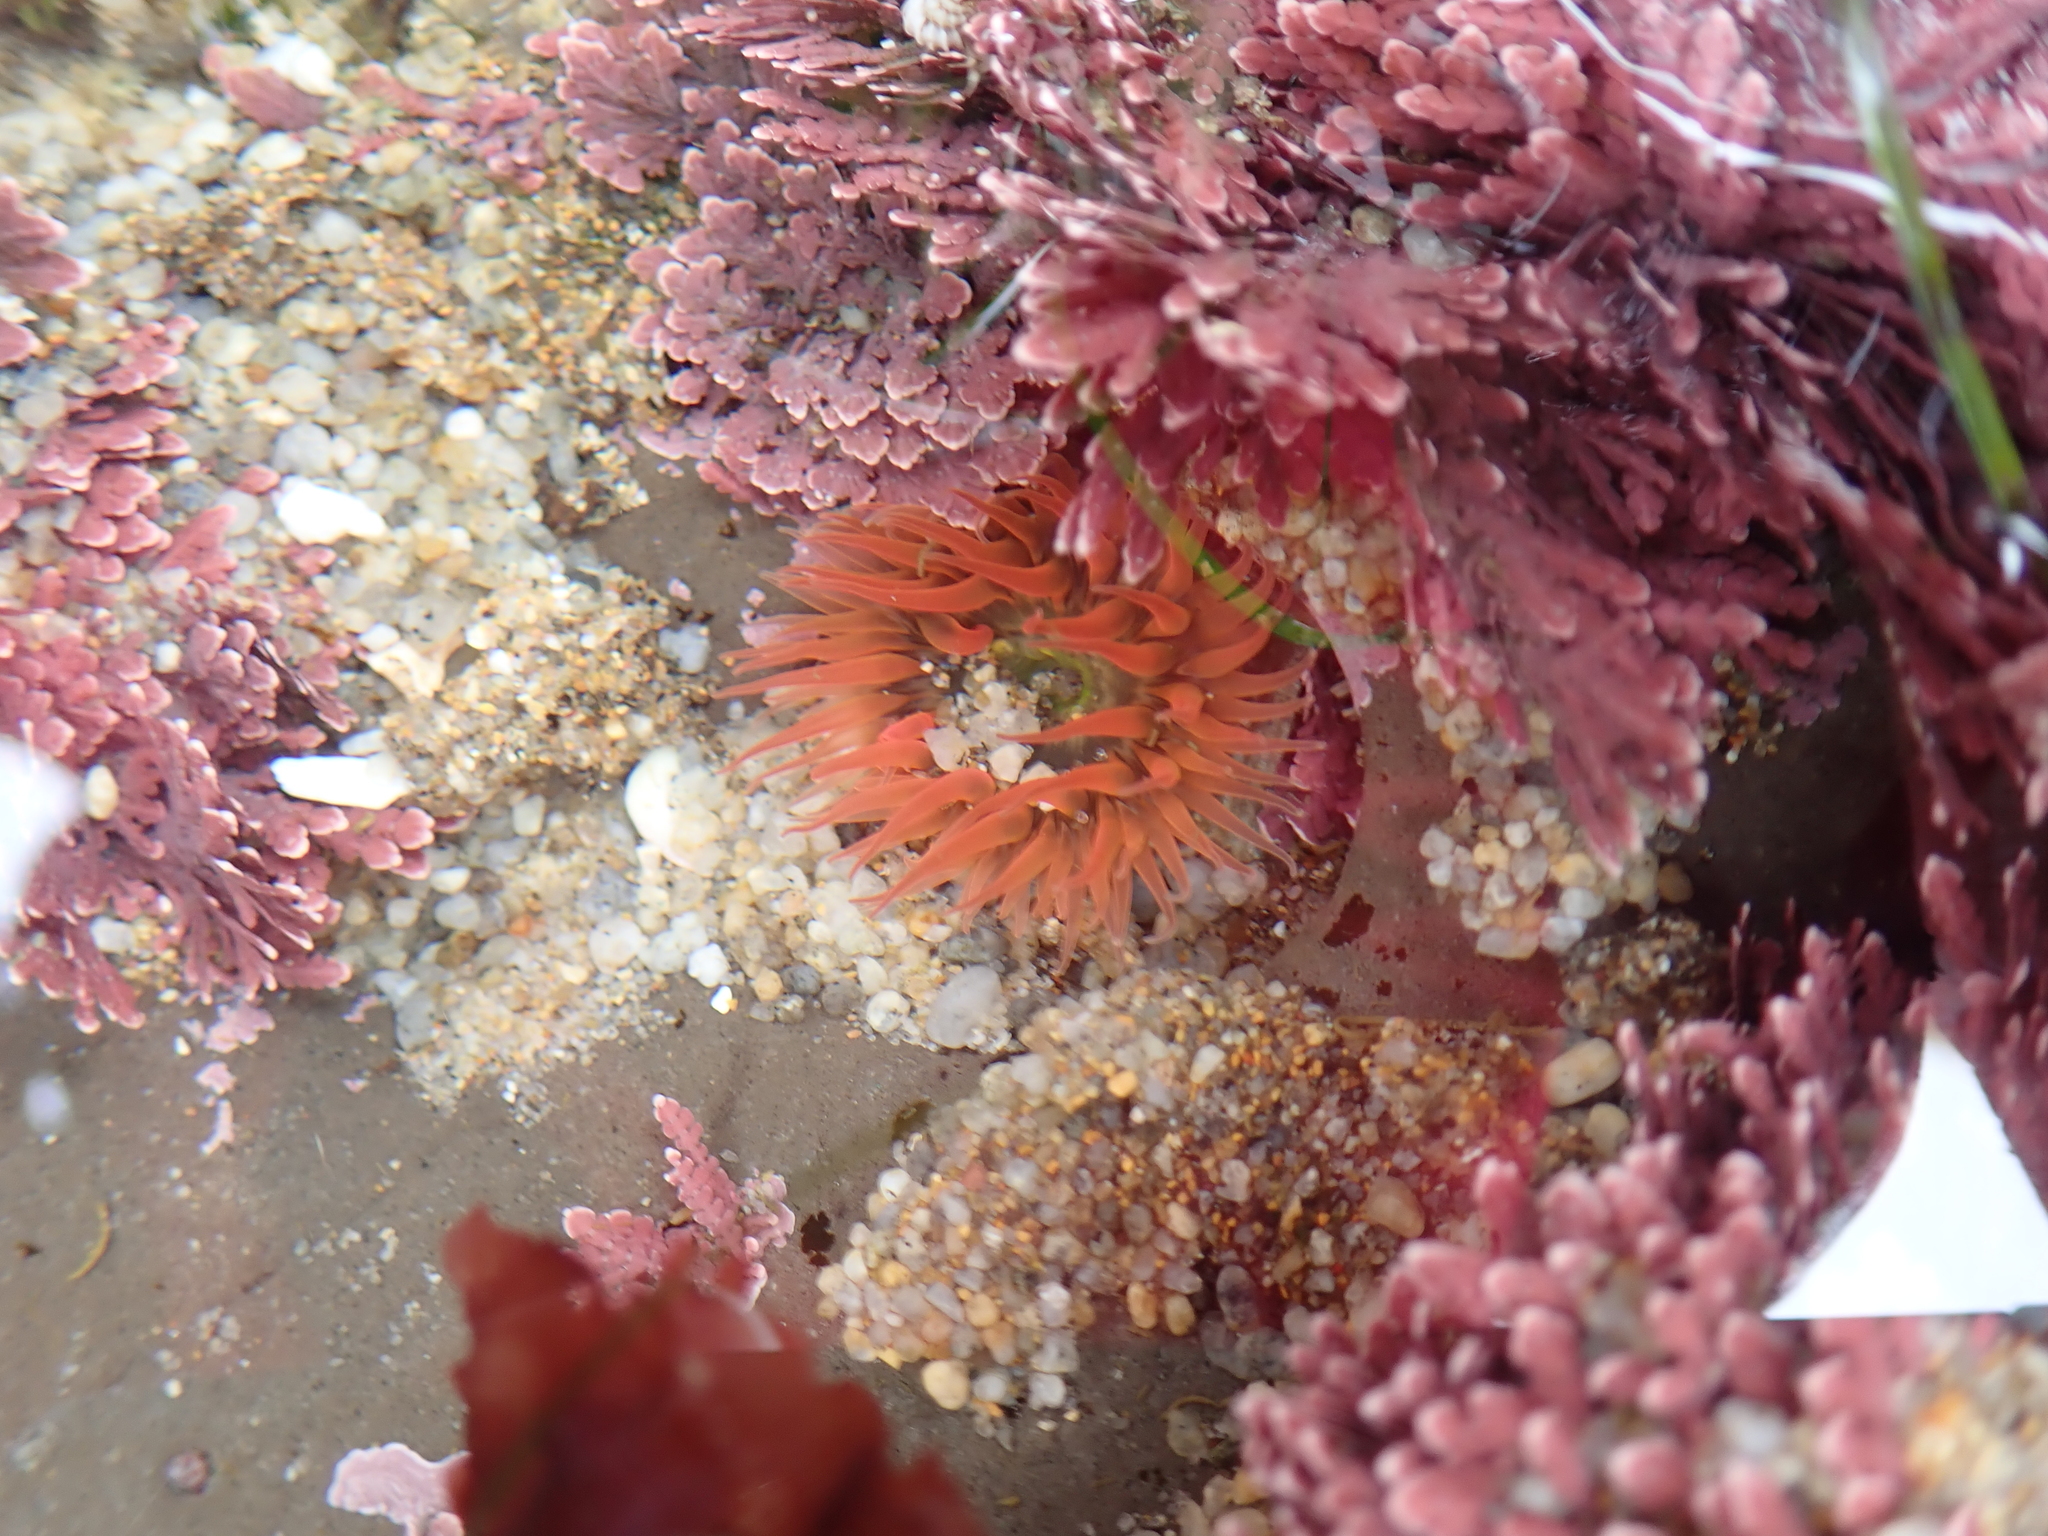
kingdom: Animalia
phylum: Cnidaria
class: Anthozoa
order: Actiniaria
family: Actiniidae
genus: Anthopleura
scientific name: Anthopleura artemisia
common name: Buried sea anemone
